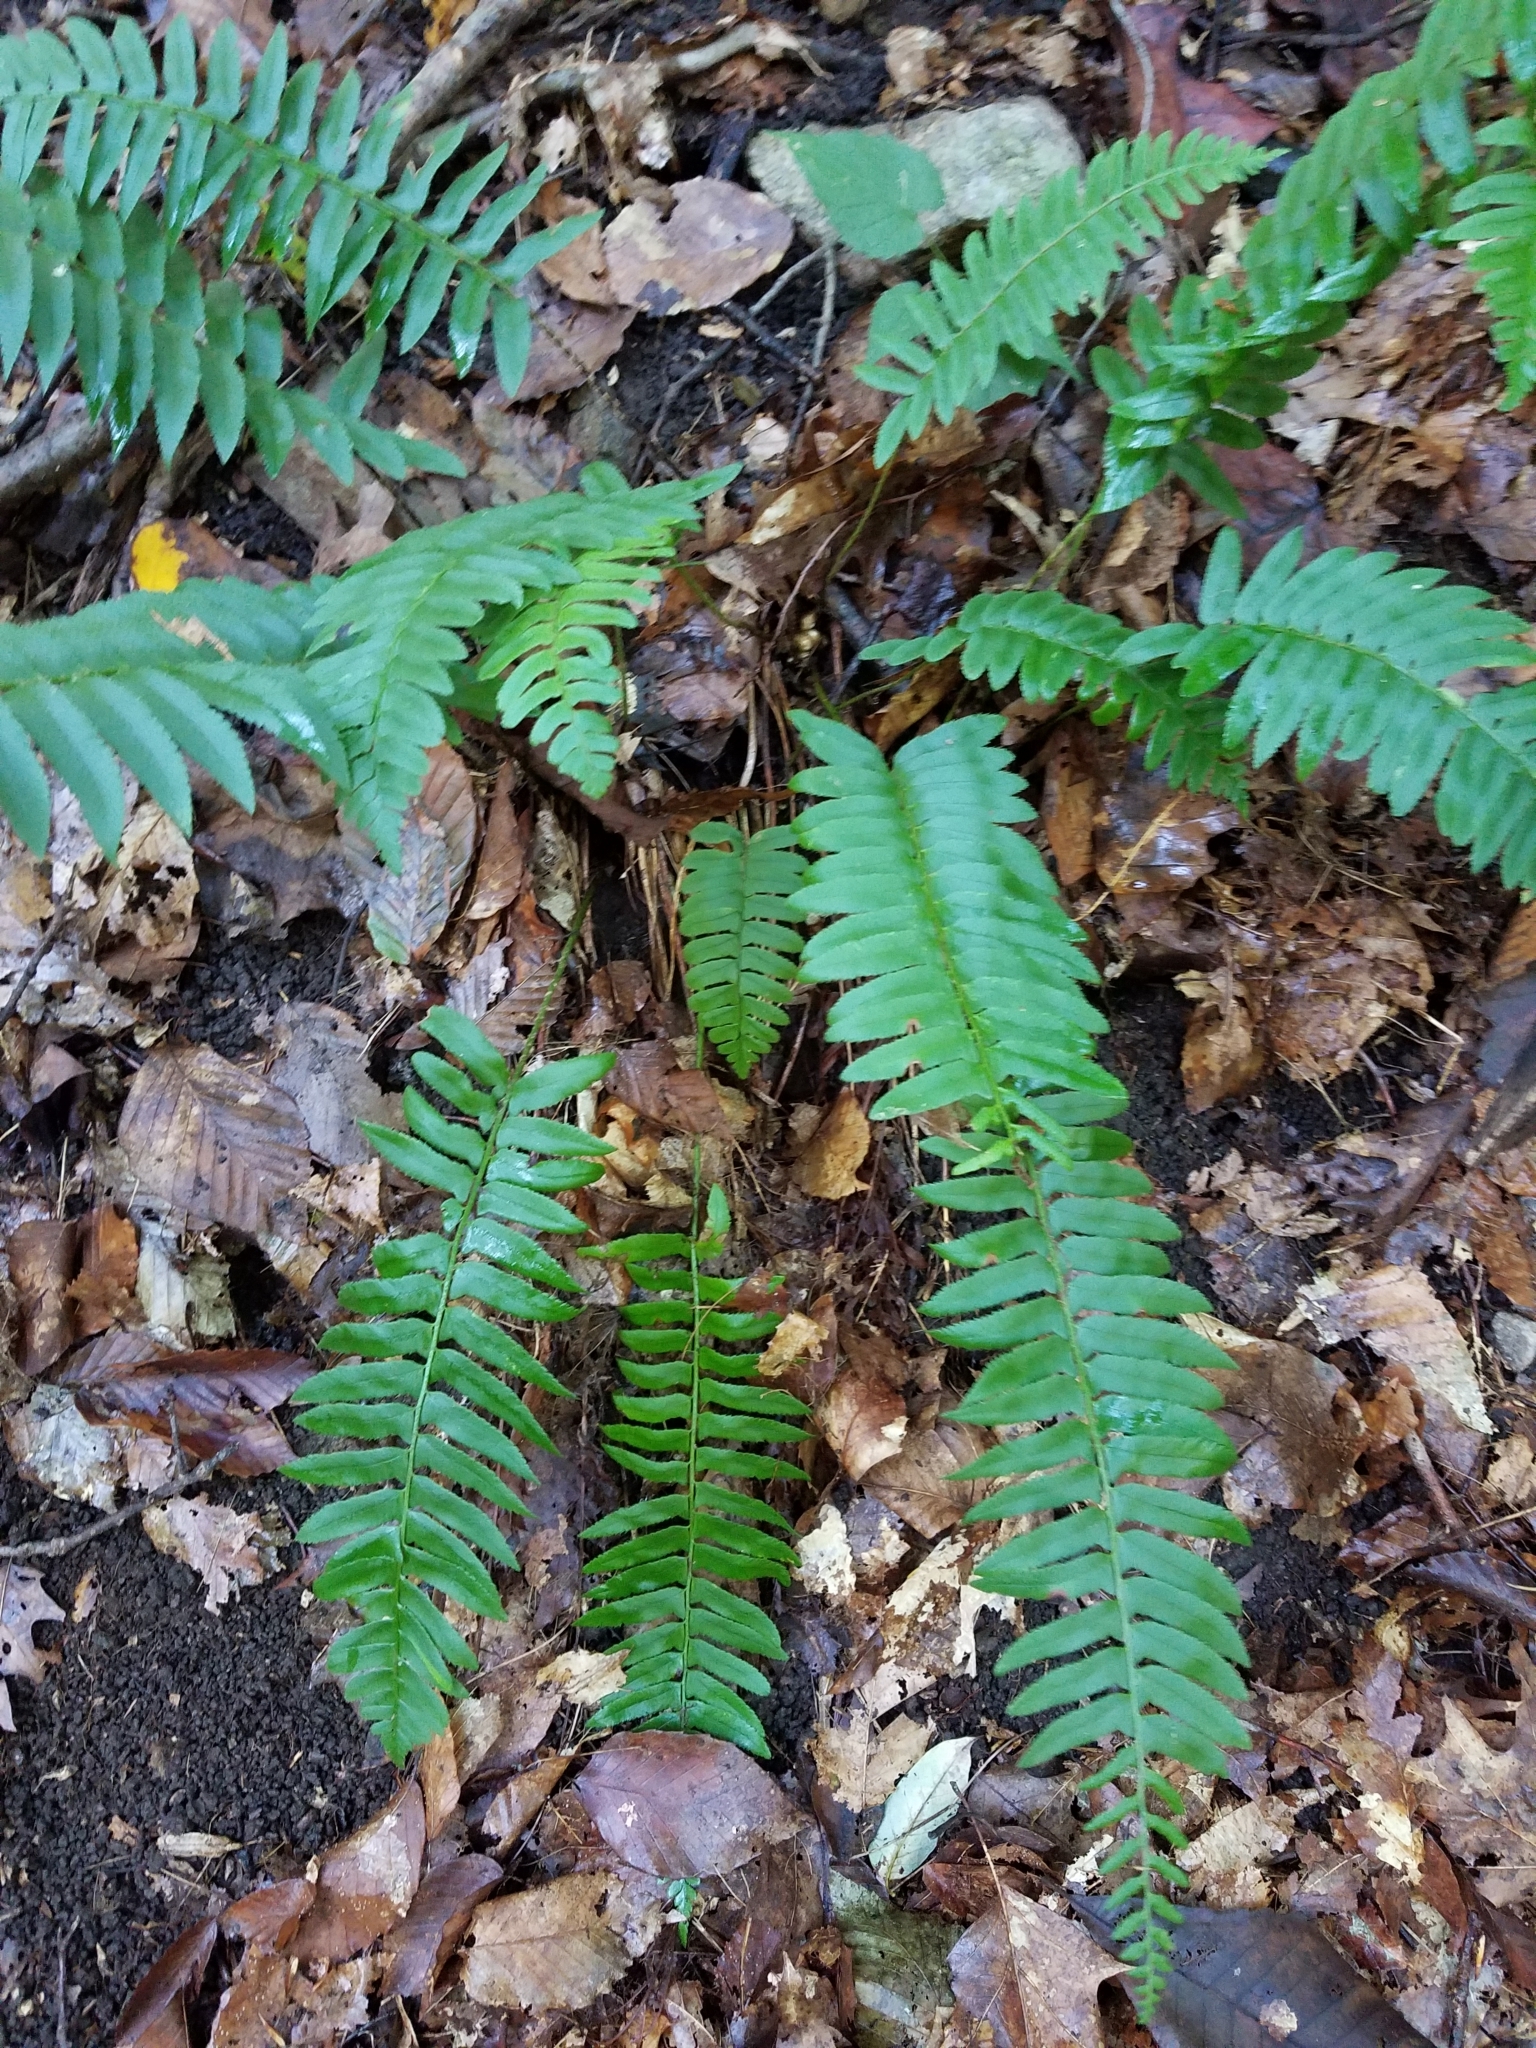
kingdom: Plantae
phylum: Tracheophyta
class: Polypodiopsida
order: Polypodiales
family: Dryopteridaceae
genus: Polystichum
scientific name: Polystichum acrostichoides
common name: Christmas fern
